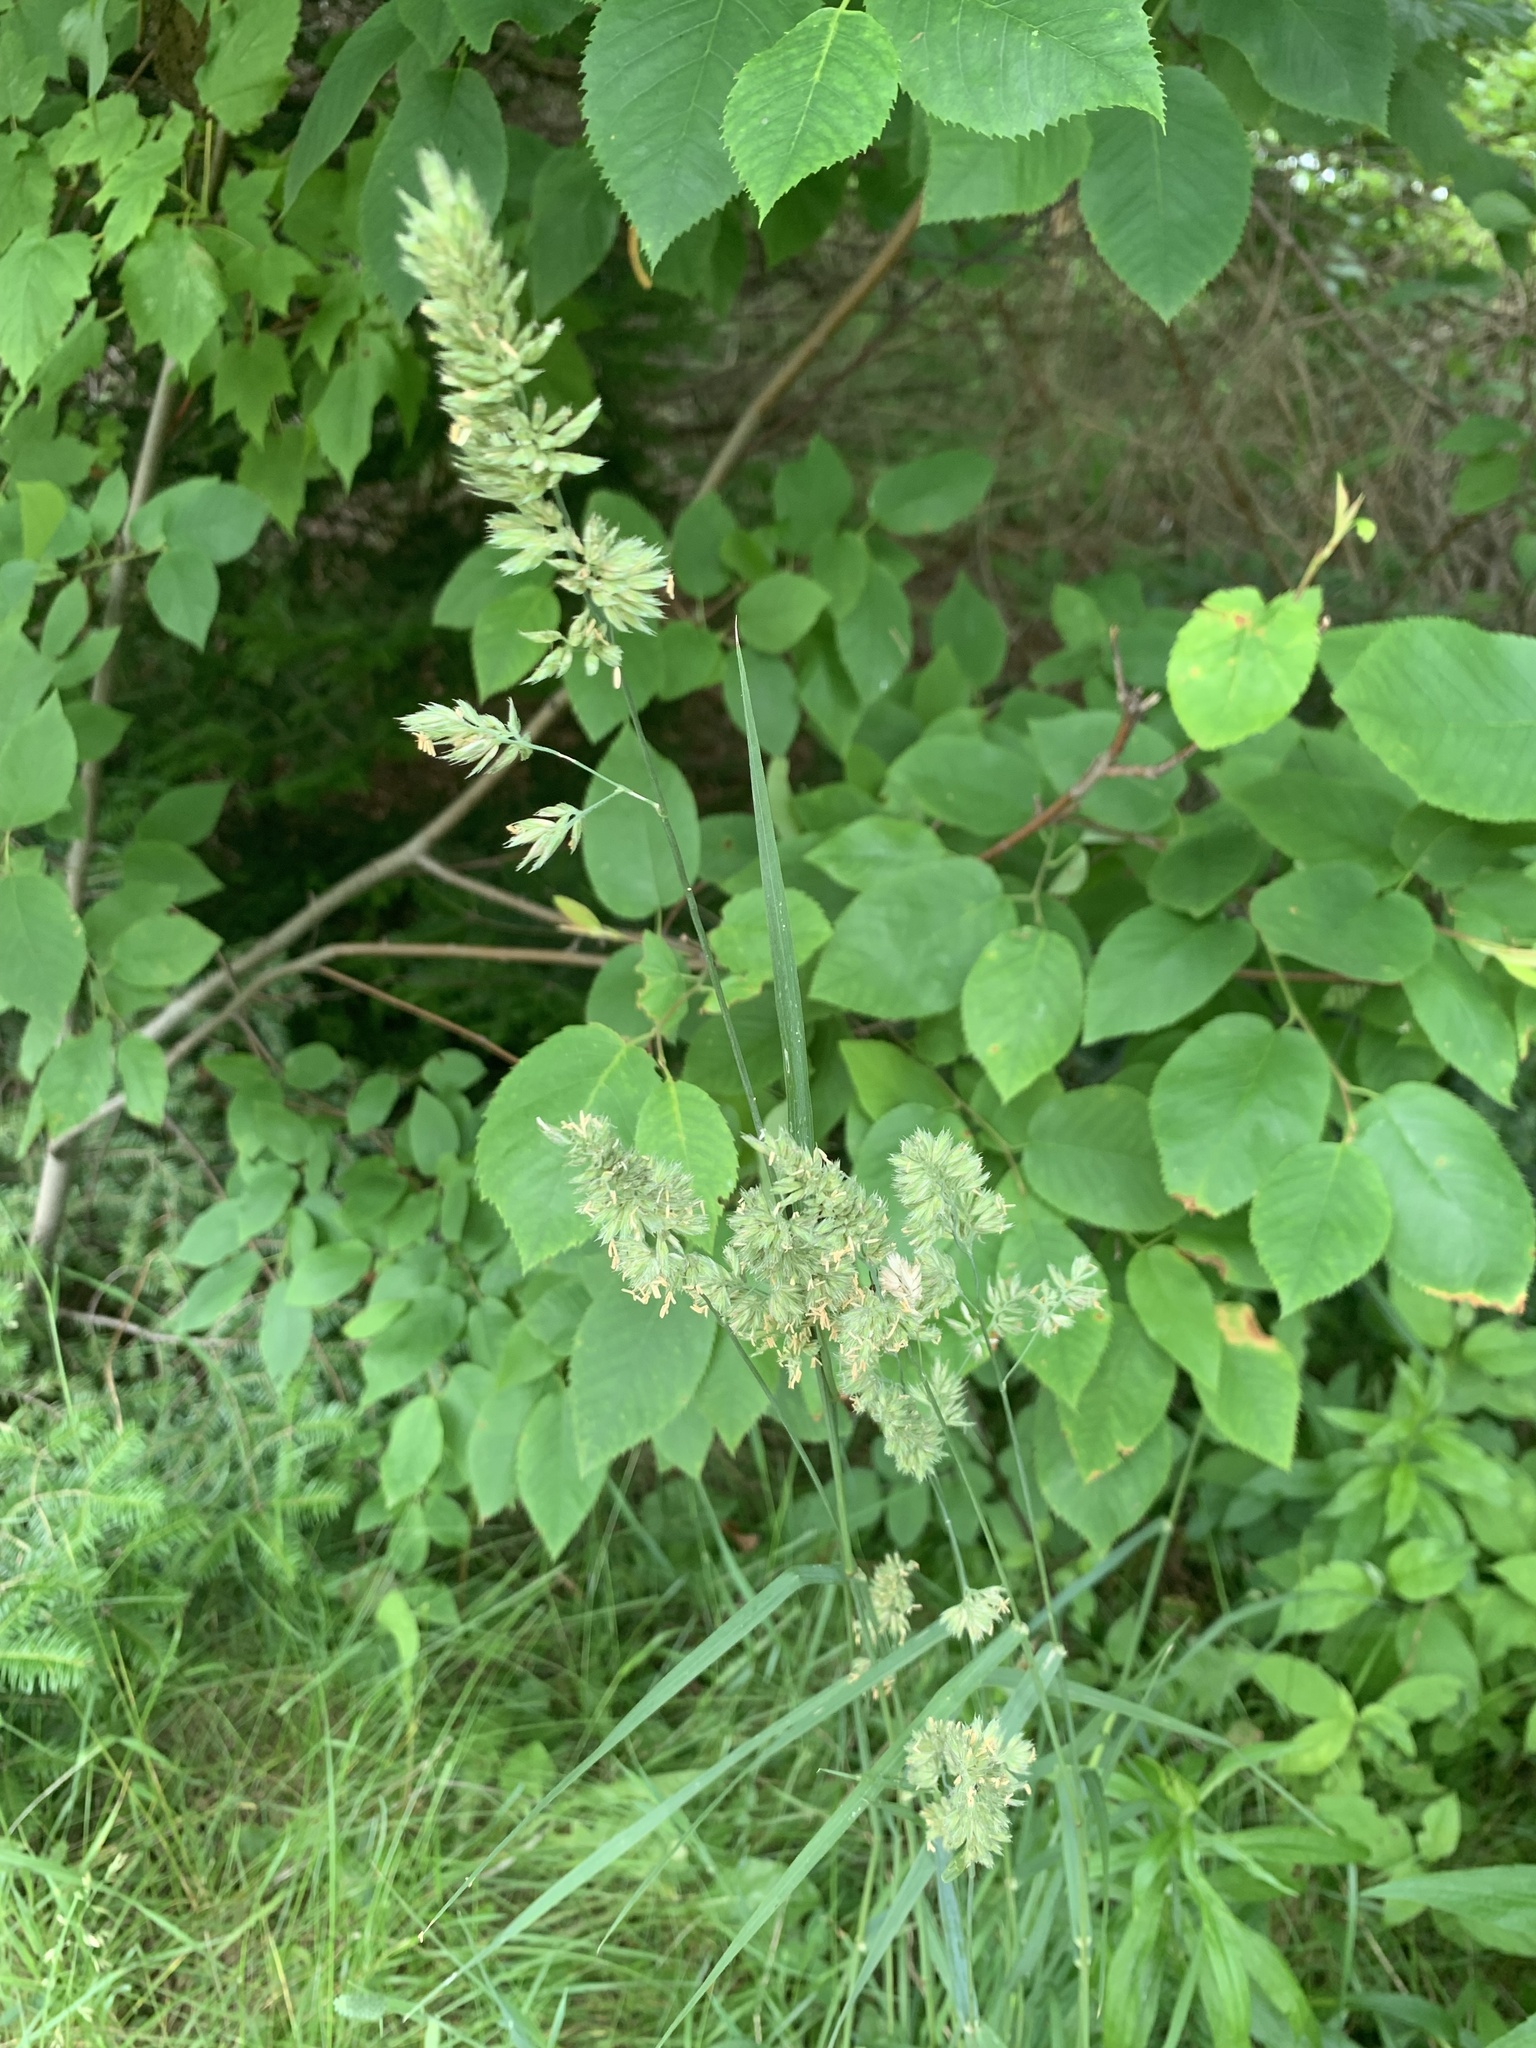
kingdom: Plantae
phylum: Tracheophyta
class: Liliopsida
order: Poales
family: Poaceae
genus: Dactylis
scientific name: Dactylis glomerata
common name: Orchardgrass
